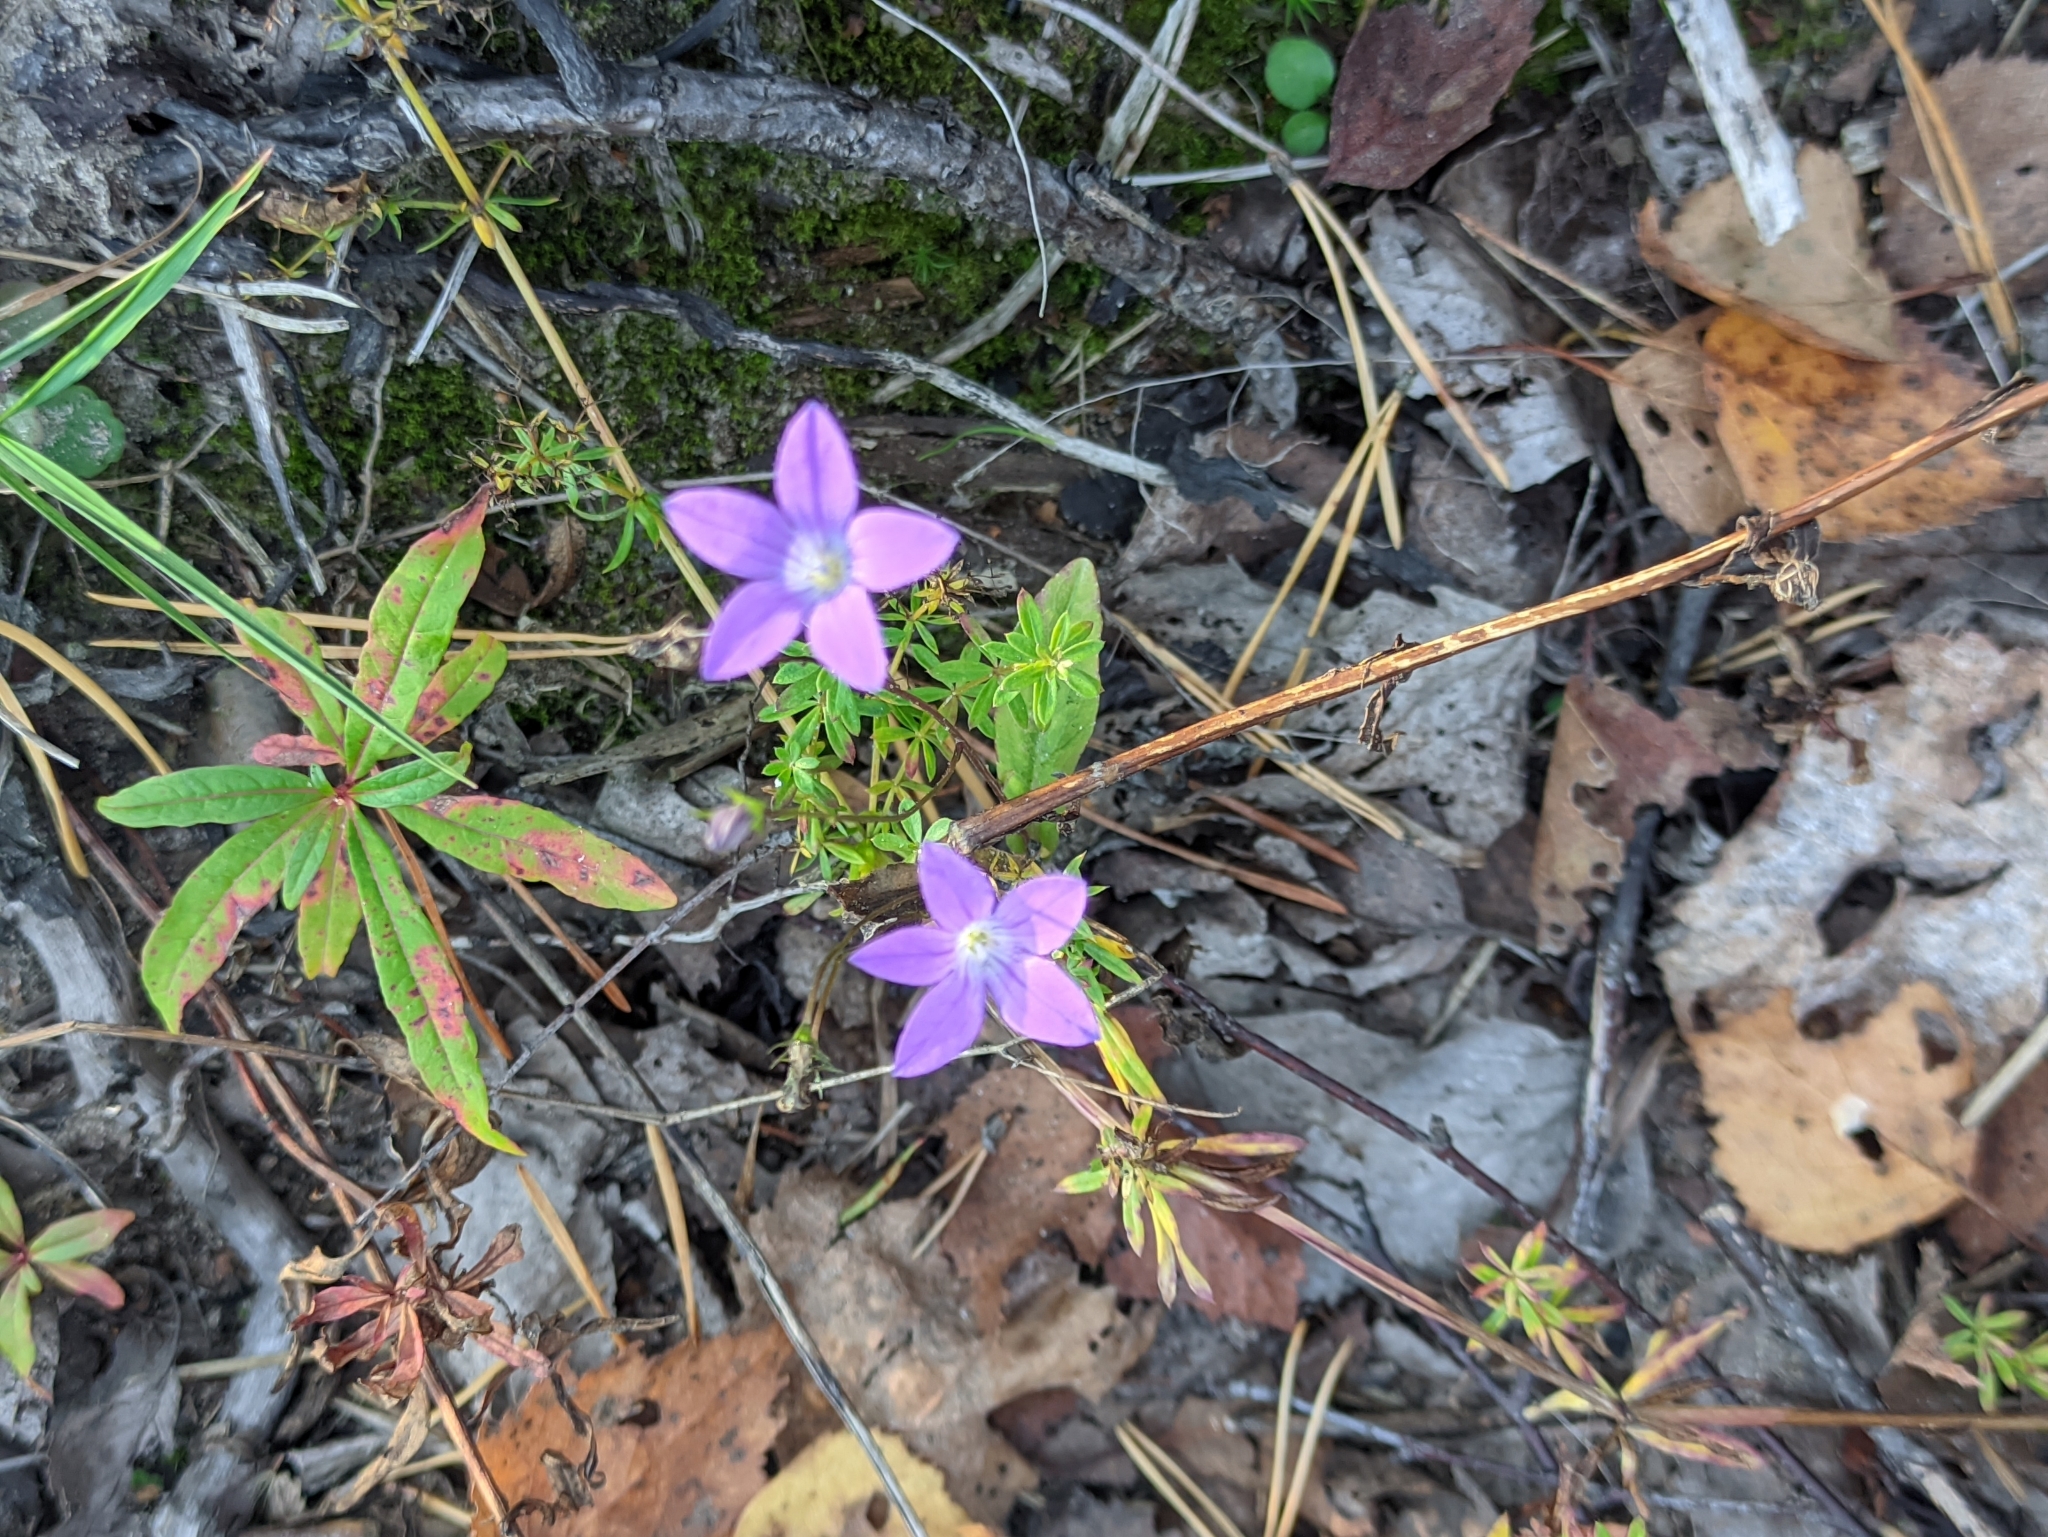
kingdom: Plantae
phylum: Tracheophyta
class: Magnoliopsida
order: Asterales
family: Campanulaceae
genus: Campanula
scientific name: Campanula patula
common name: Spreading bellflower
